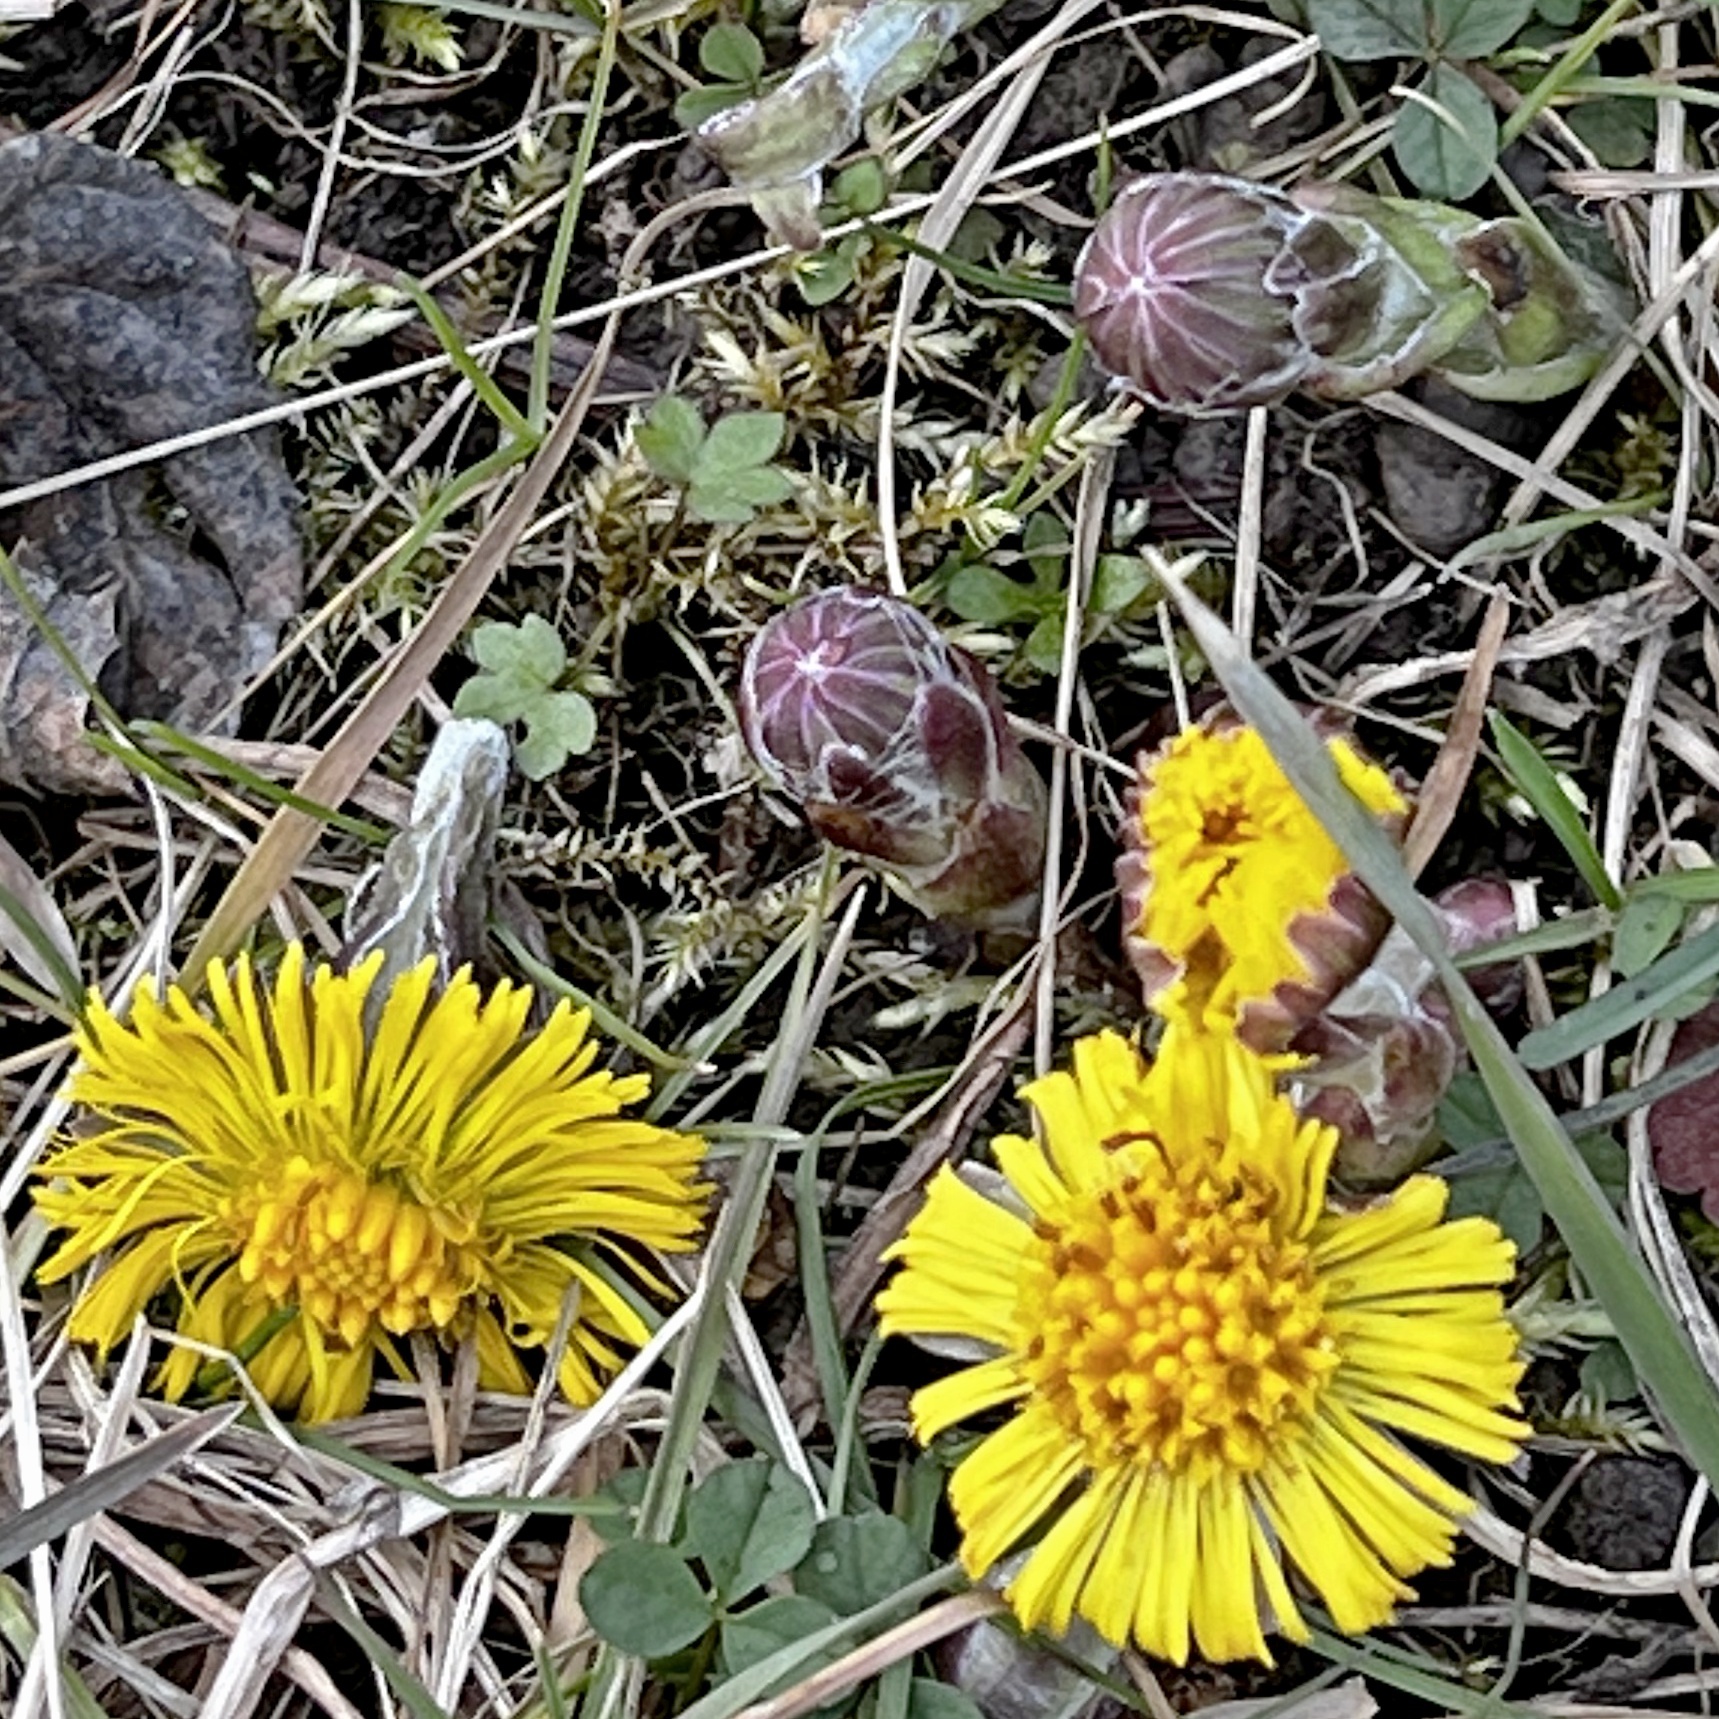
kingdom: Plantae
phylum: Tracheophyta
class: Magnoliopsida
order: Asterales
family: Asteraceae
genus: Tussilago
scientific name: Tussilago farfara
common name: Coltsfoot
